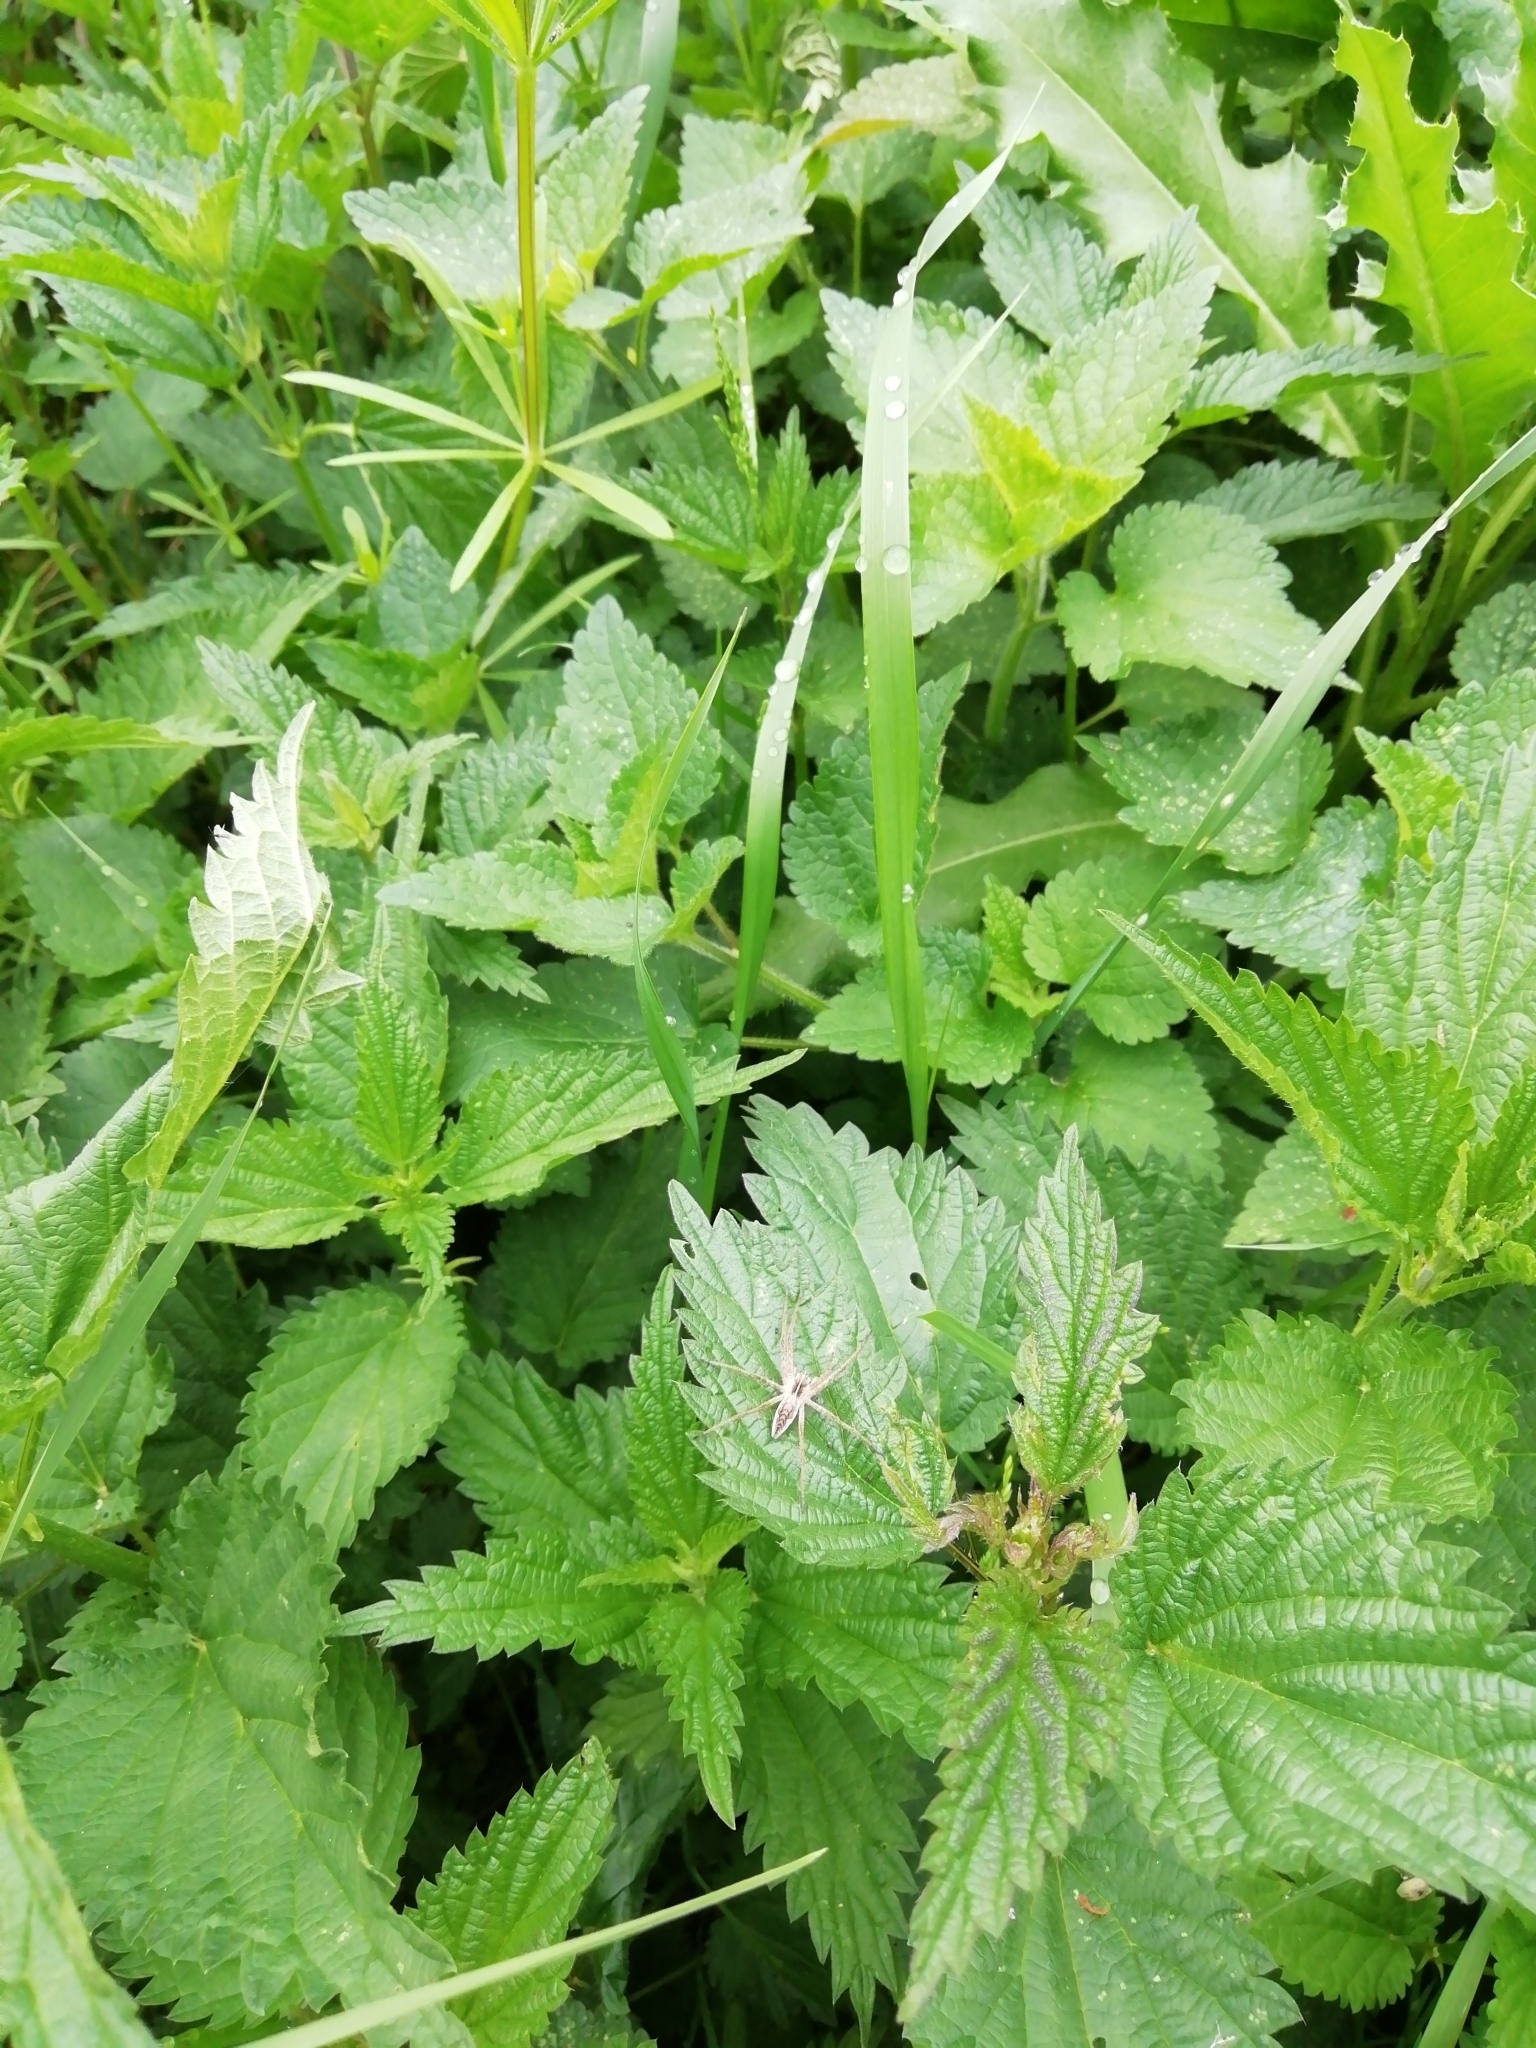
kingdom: Animalia
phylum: Arthropoda
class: Arachnida
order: Araneae
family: Pisauridae
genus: Pisaura
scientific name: Pisaura mirabilis
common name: Tent spider
